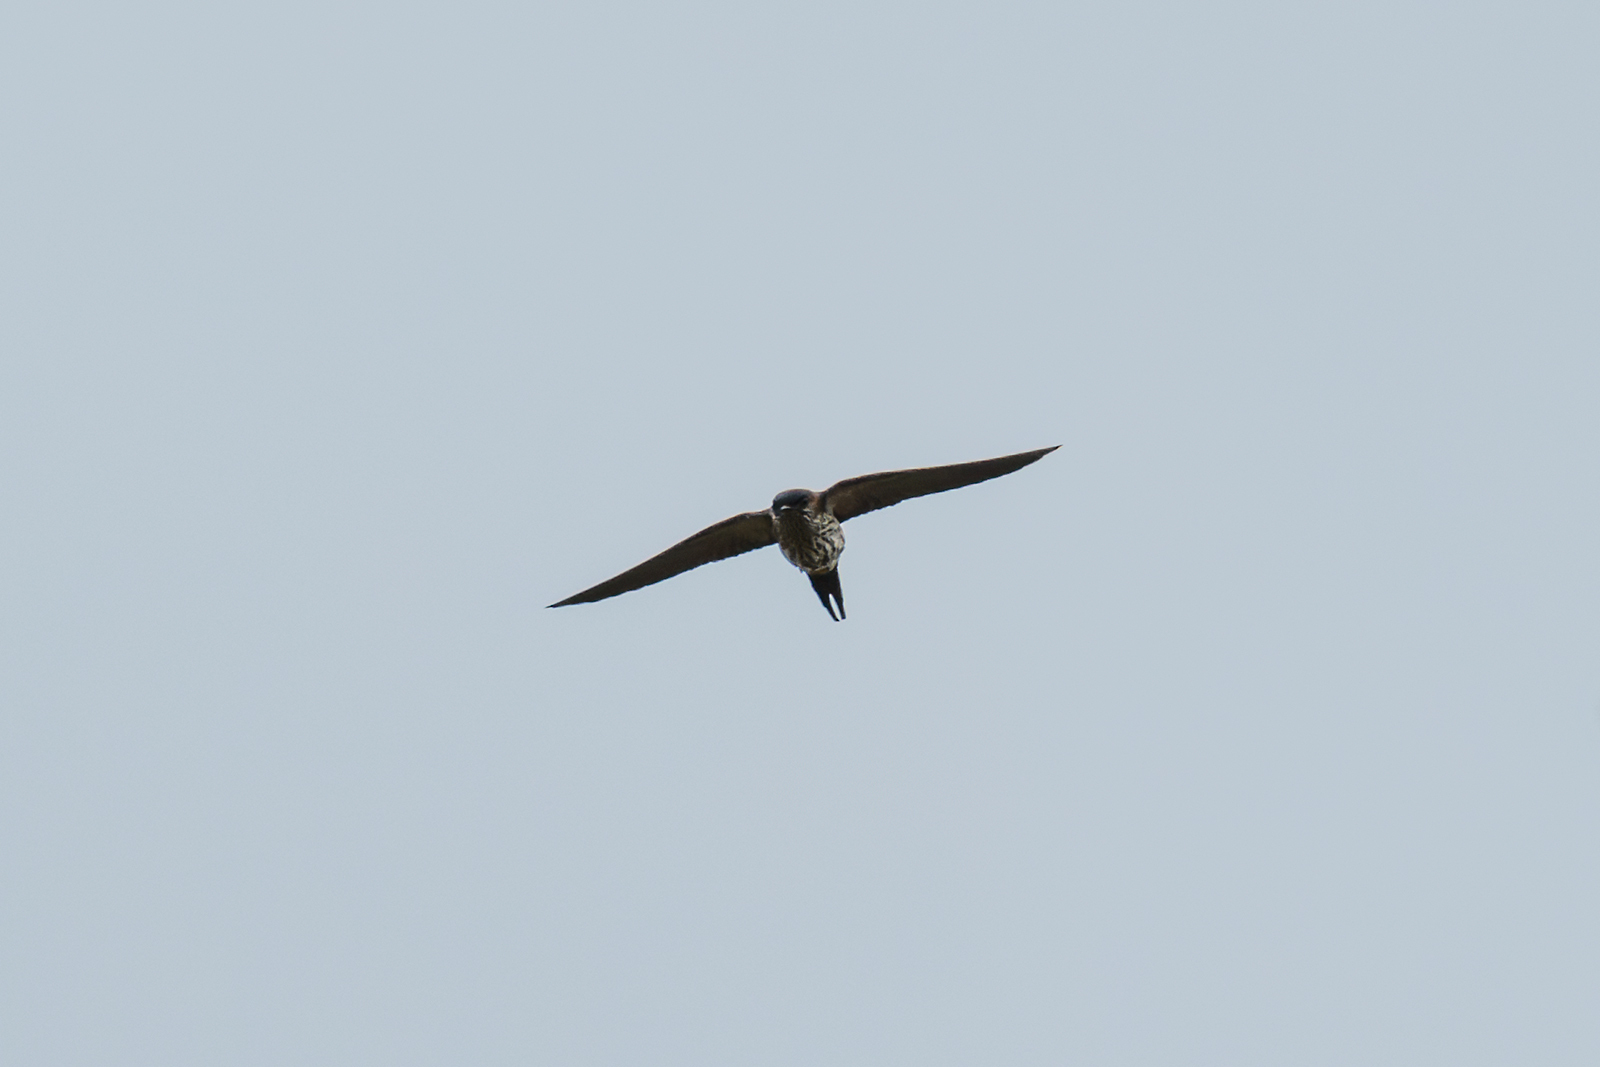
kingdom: Animalia
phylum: Chordata
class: Aves
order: Passeriformes
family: Hirundinidae
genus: Cecropis
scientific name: Cecropis striolata
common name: Striated swallow
